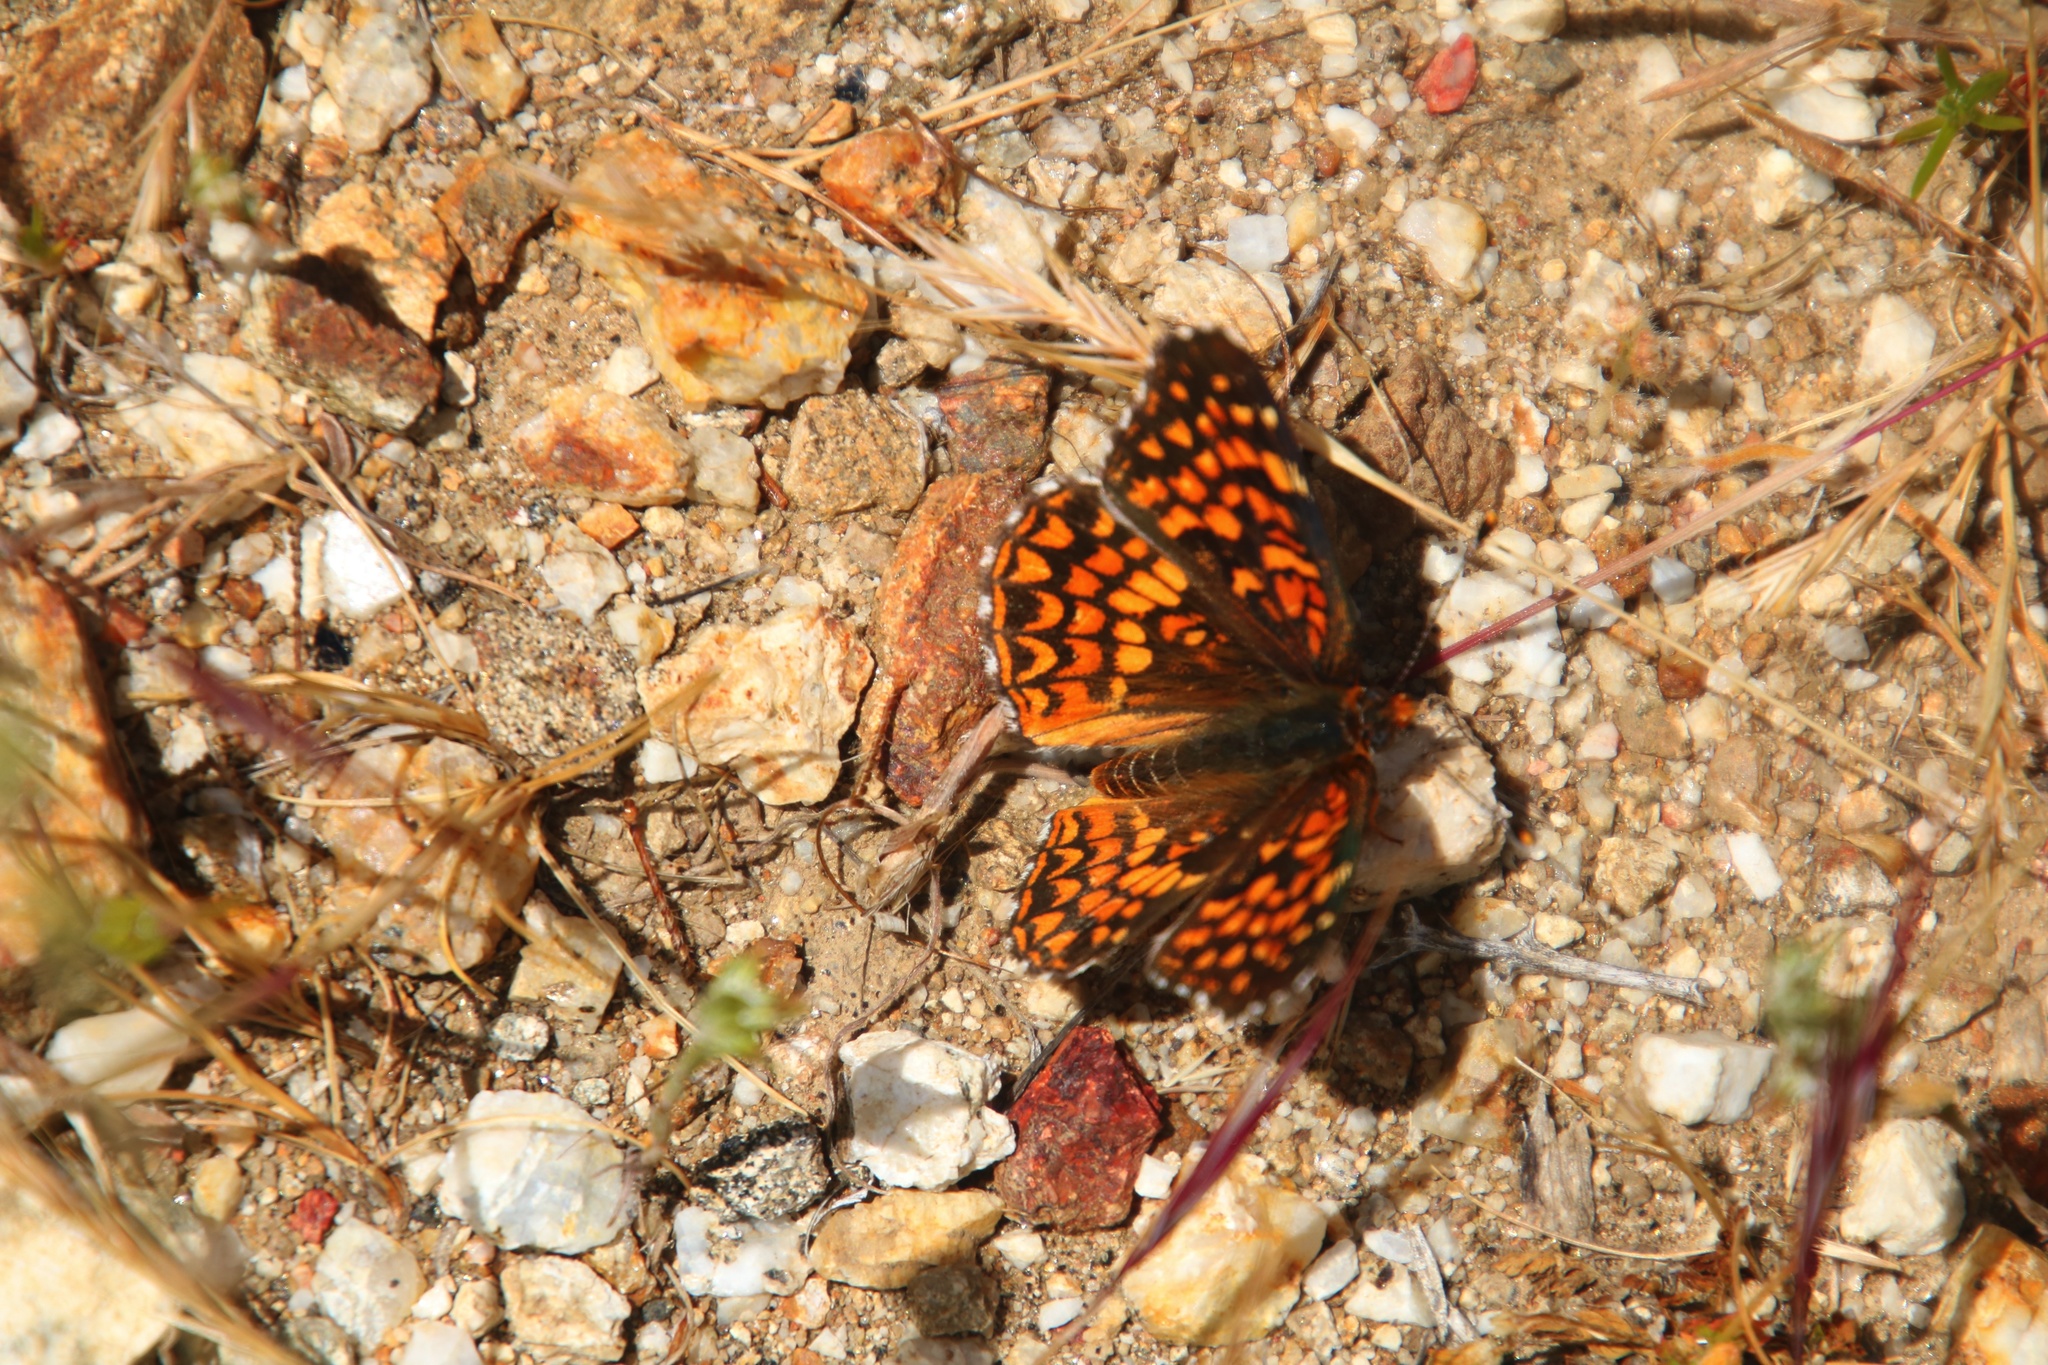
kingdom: Animalia
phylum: Arthropoda
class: Insecta
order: Lepidoptera
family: Nymphalidae
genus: Chlosyne
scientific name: Chlosyne gabbii
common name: Gabb's checkerspot
